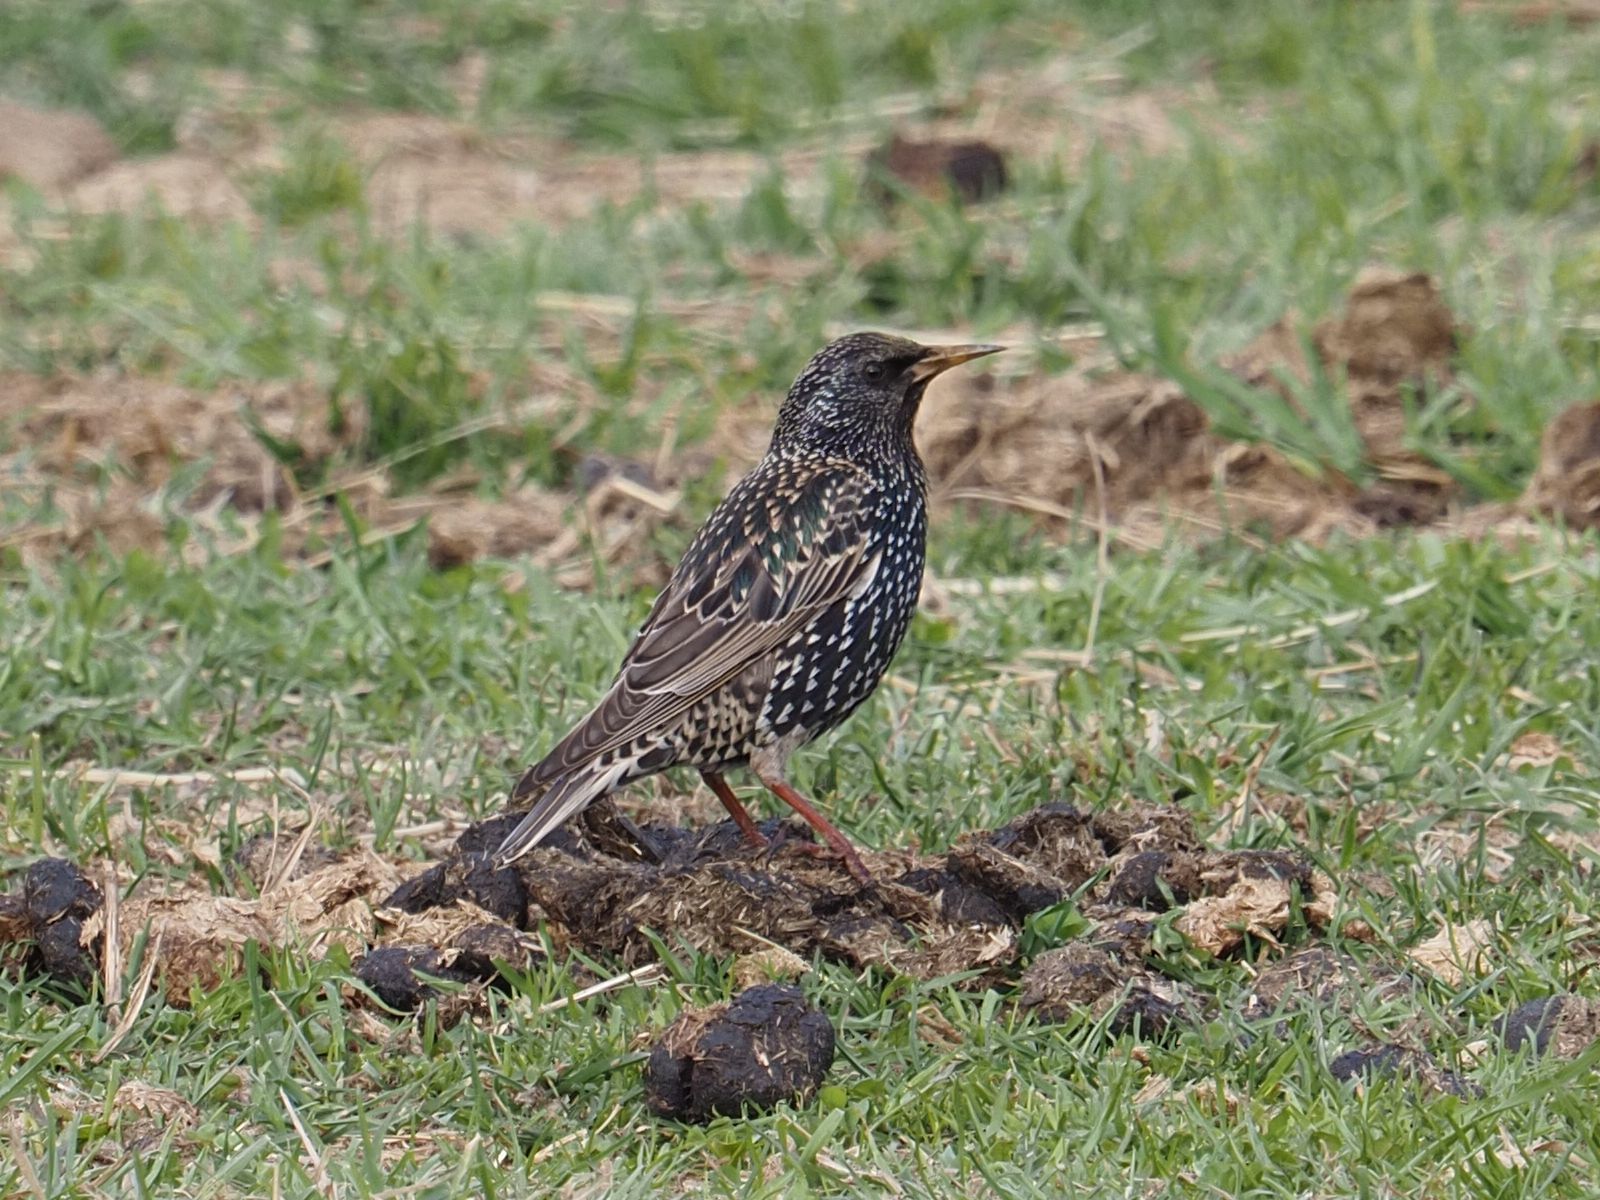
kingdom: Animalia
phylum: Chordata
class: Aves
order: Passeriformes
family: Sturnidae
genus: Sturnus
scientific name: Sturnus vulgaris
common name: Common starling
